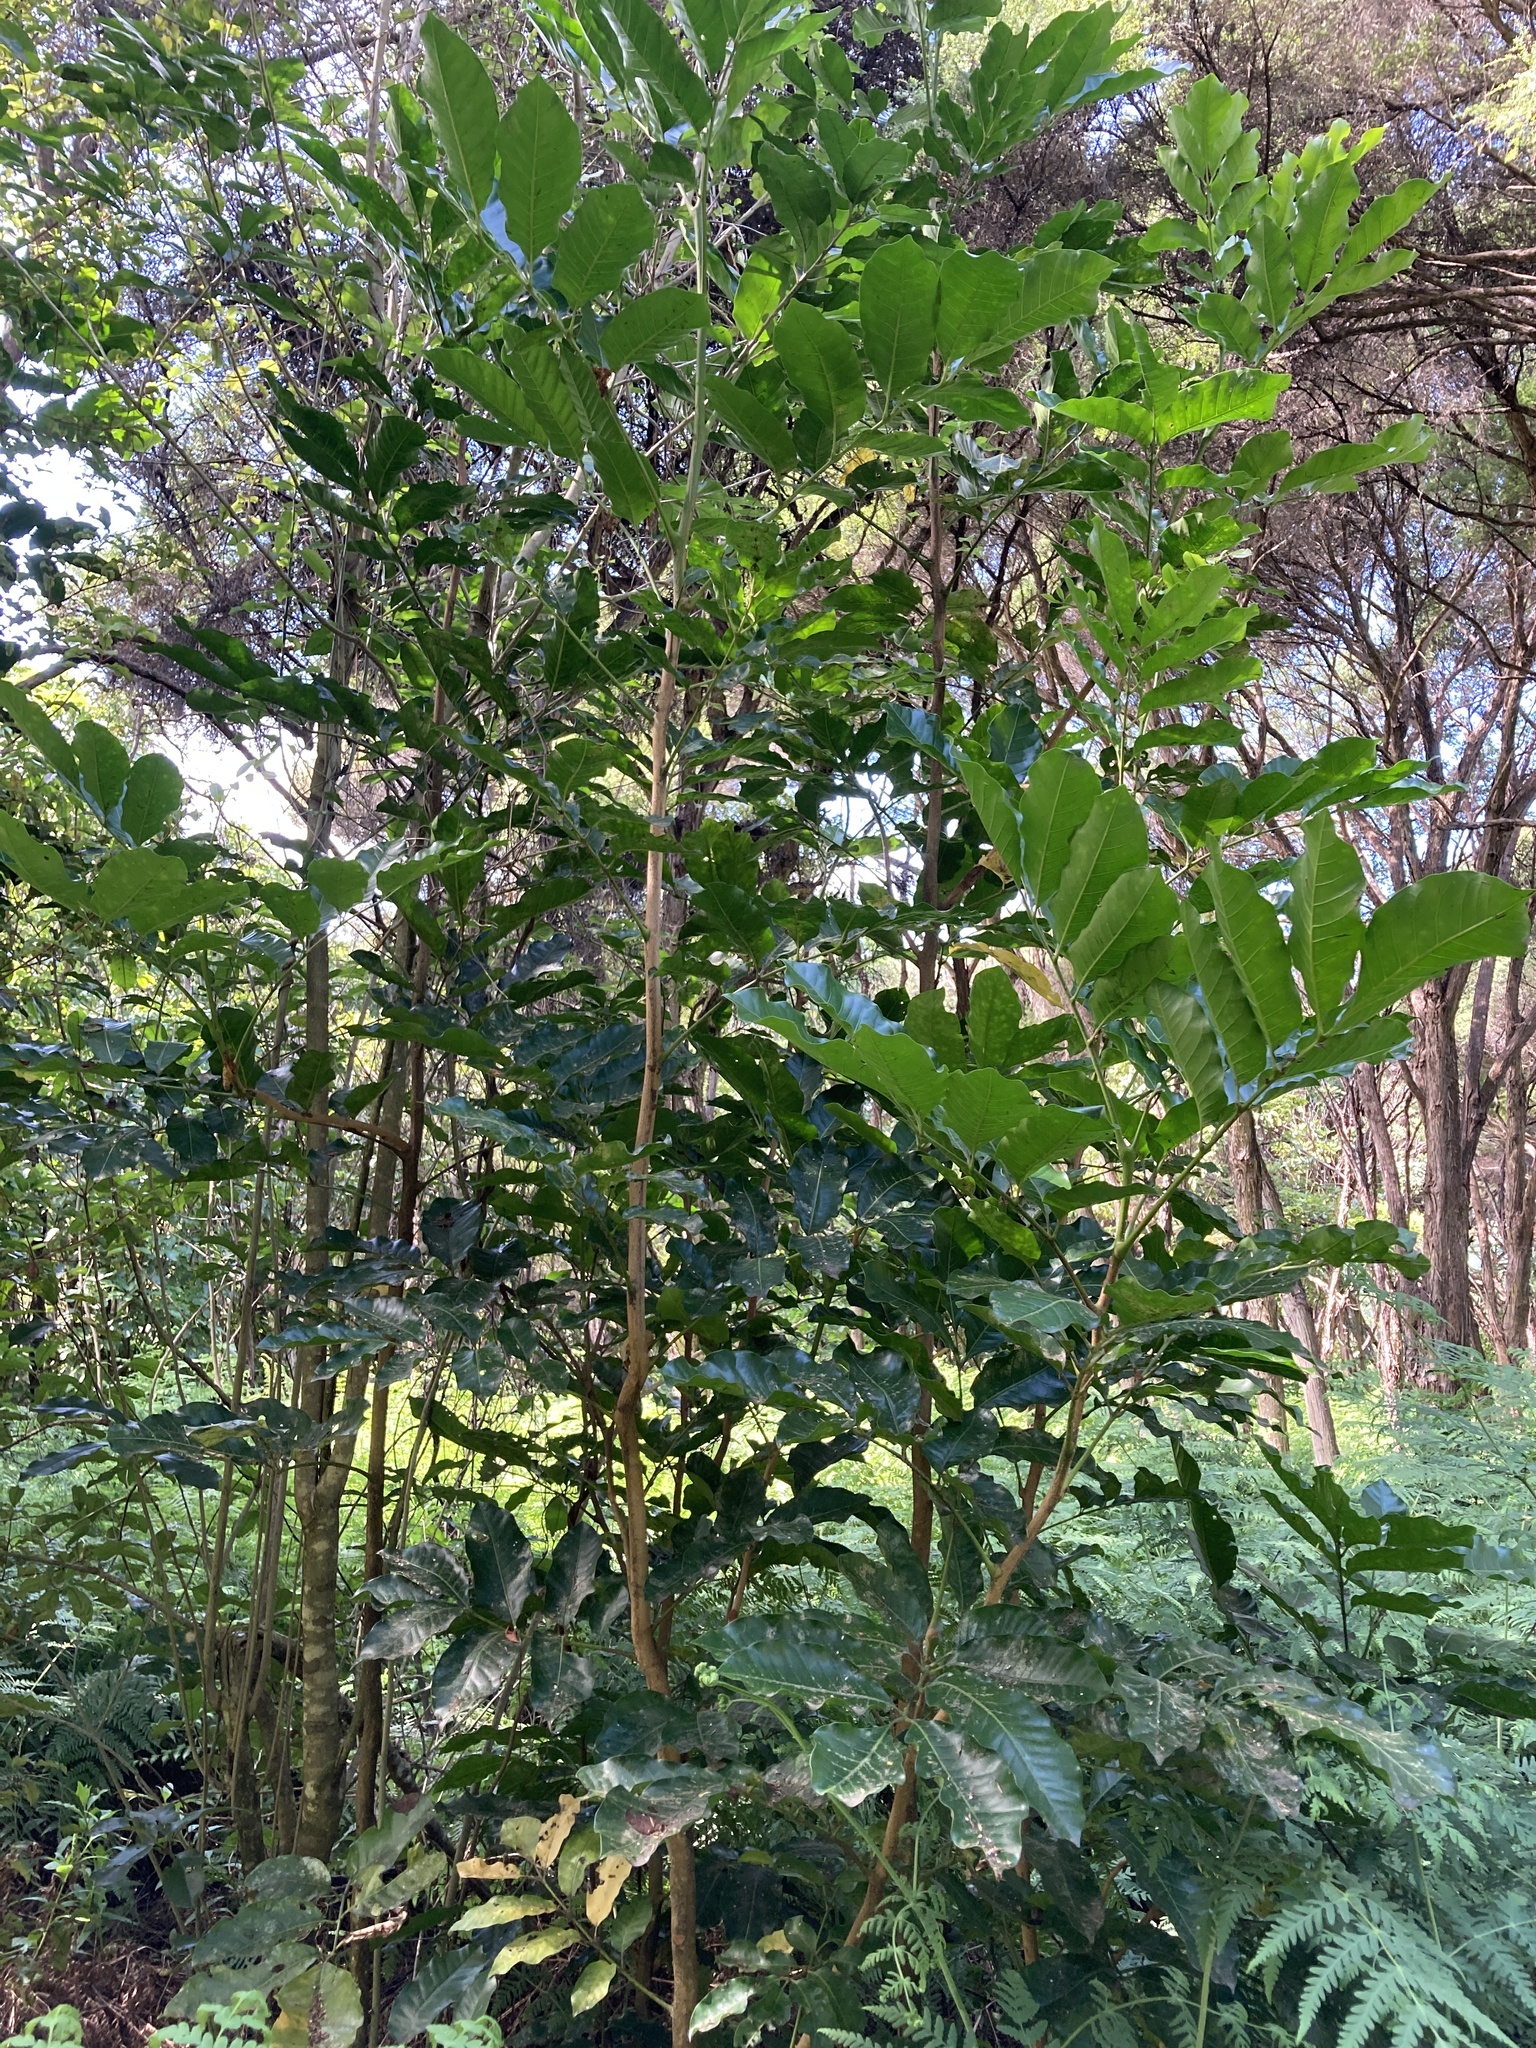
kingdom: Plantae
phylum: Tracheophyta
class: Magnoliopsida
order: Sapindales
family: Meliaceae
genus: Didymocheton
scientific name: Didymocheton spectabilis
